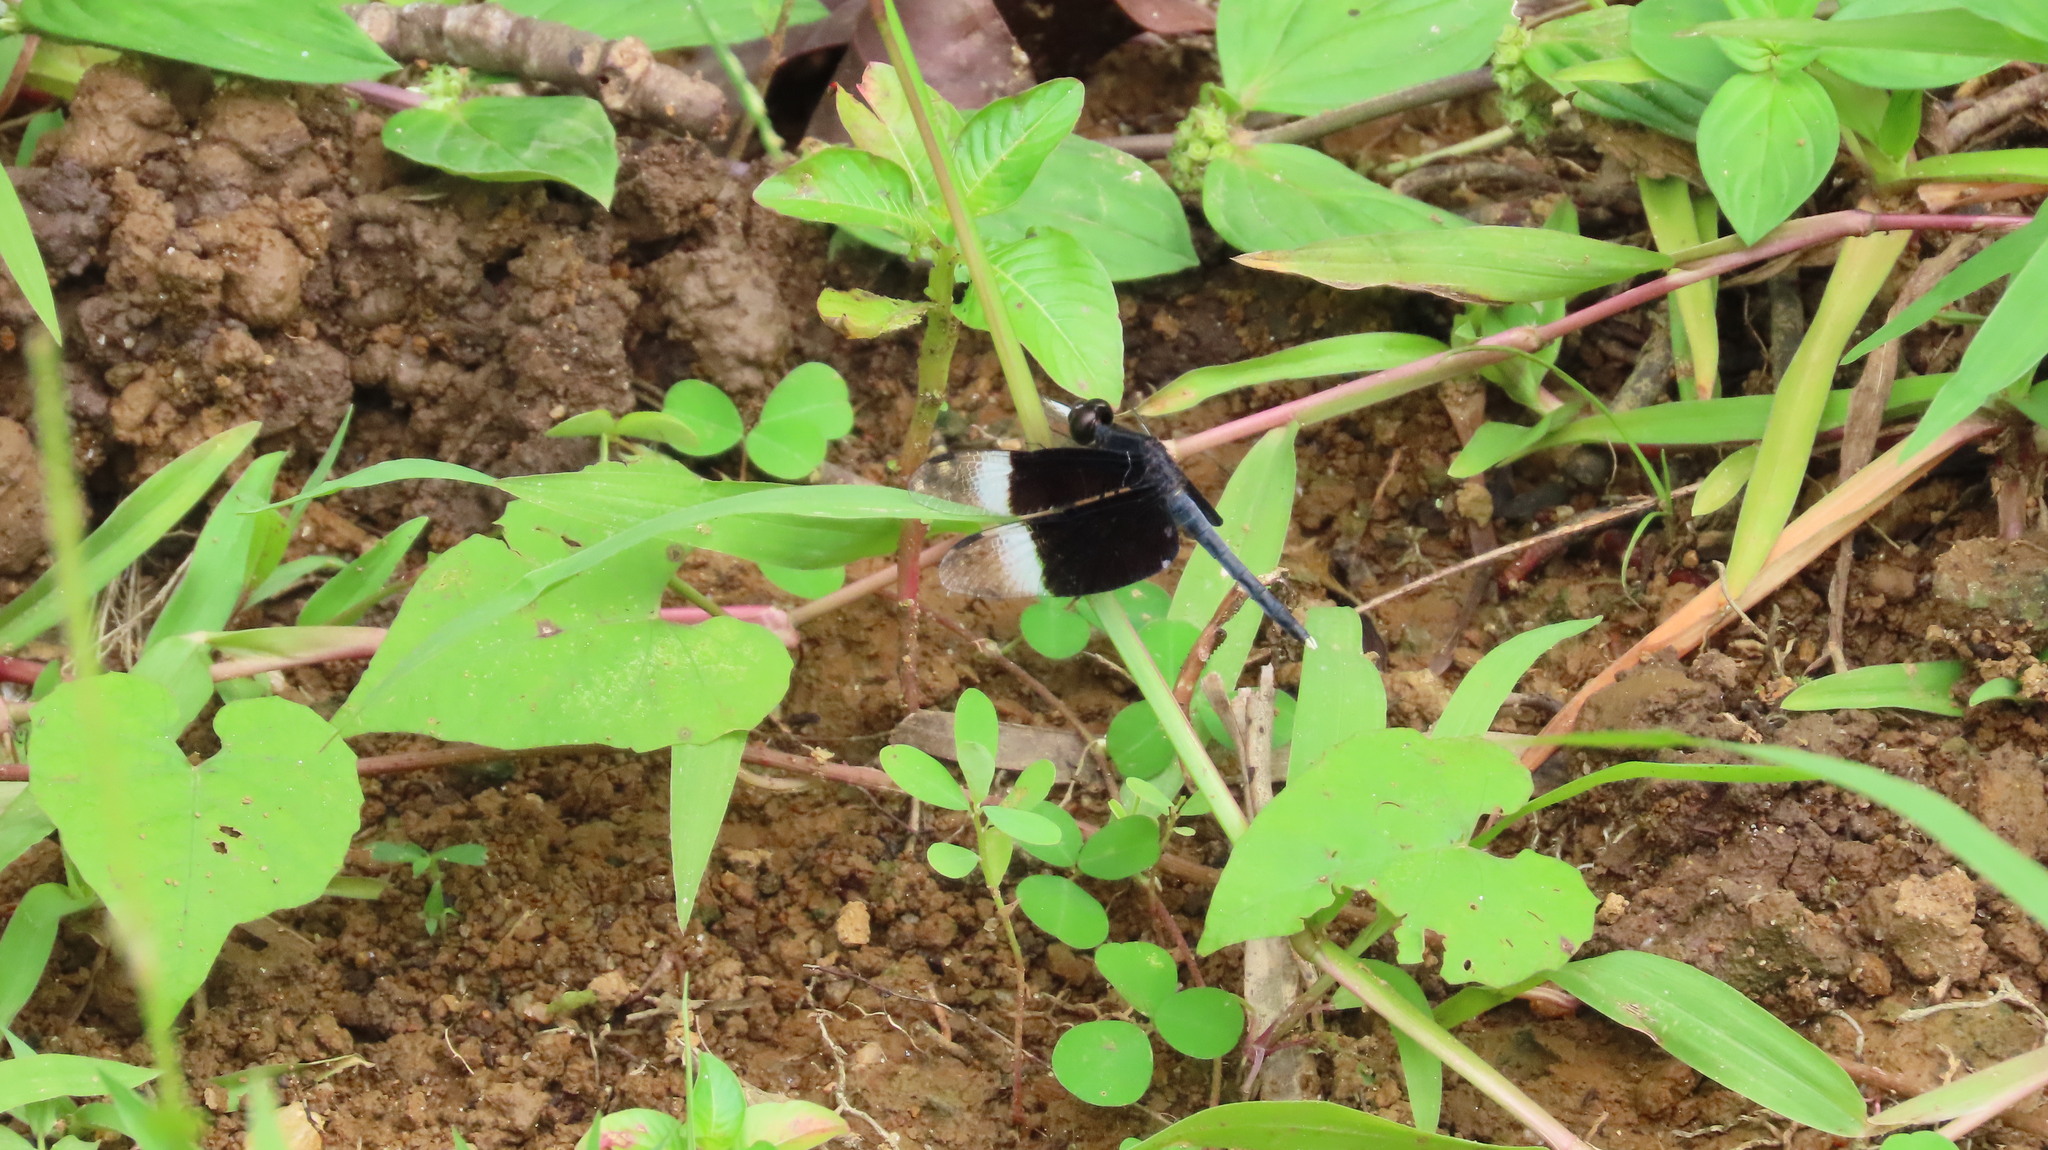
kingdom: Animalia
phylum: Arthropoda
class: Insecta
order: Odonata
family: Libellulidae
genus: Neurothemis
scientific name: Neurothemis tullia
